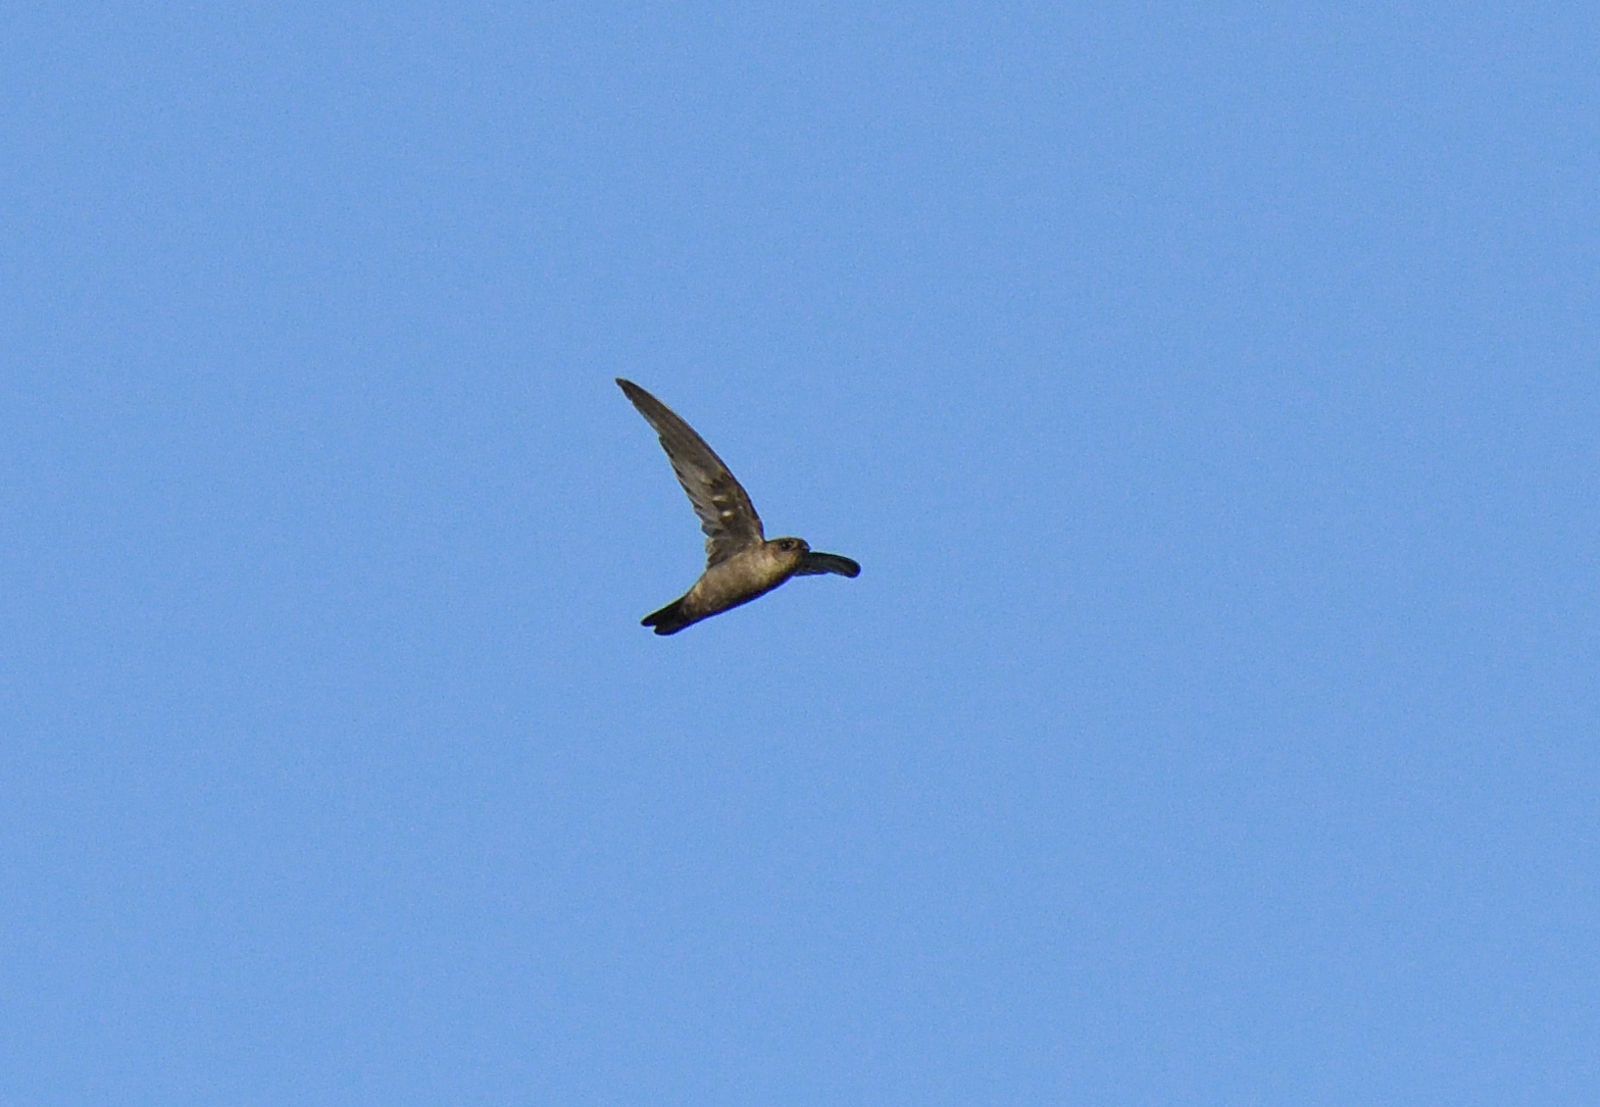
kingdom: Animalia
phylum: Chordata
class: Aves
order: Apodiformes
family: Apodidae
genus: Aerodramus
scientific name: Aerodramus unicolor
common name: Indian swiftlet
